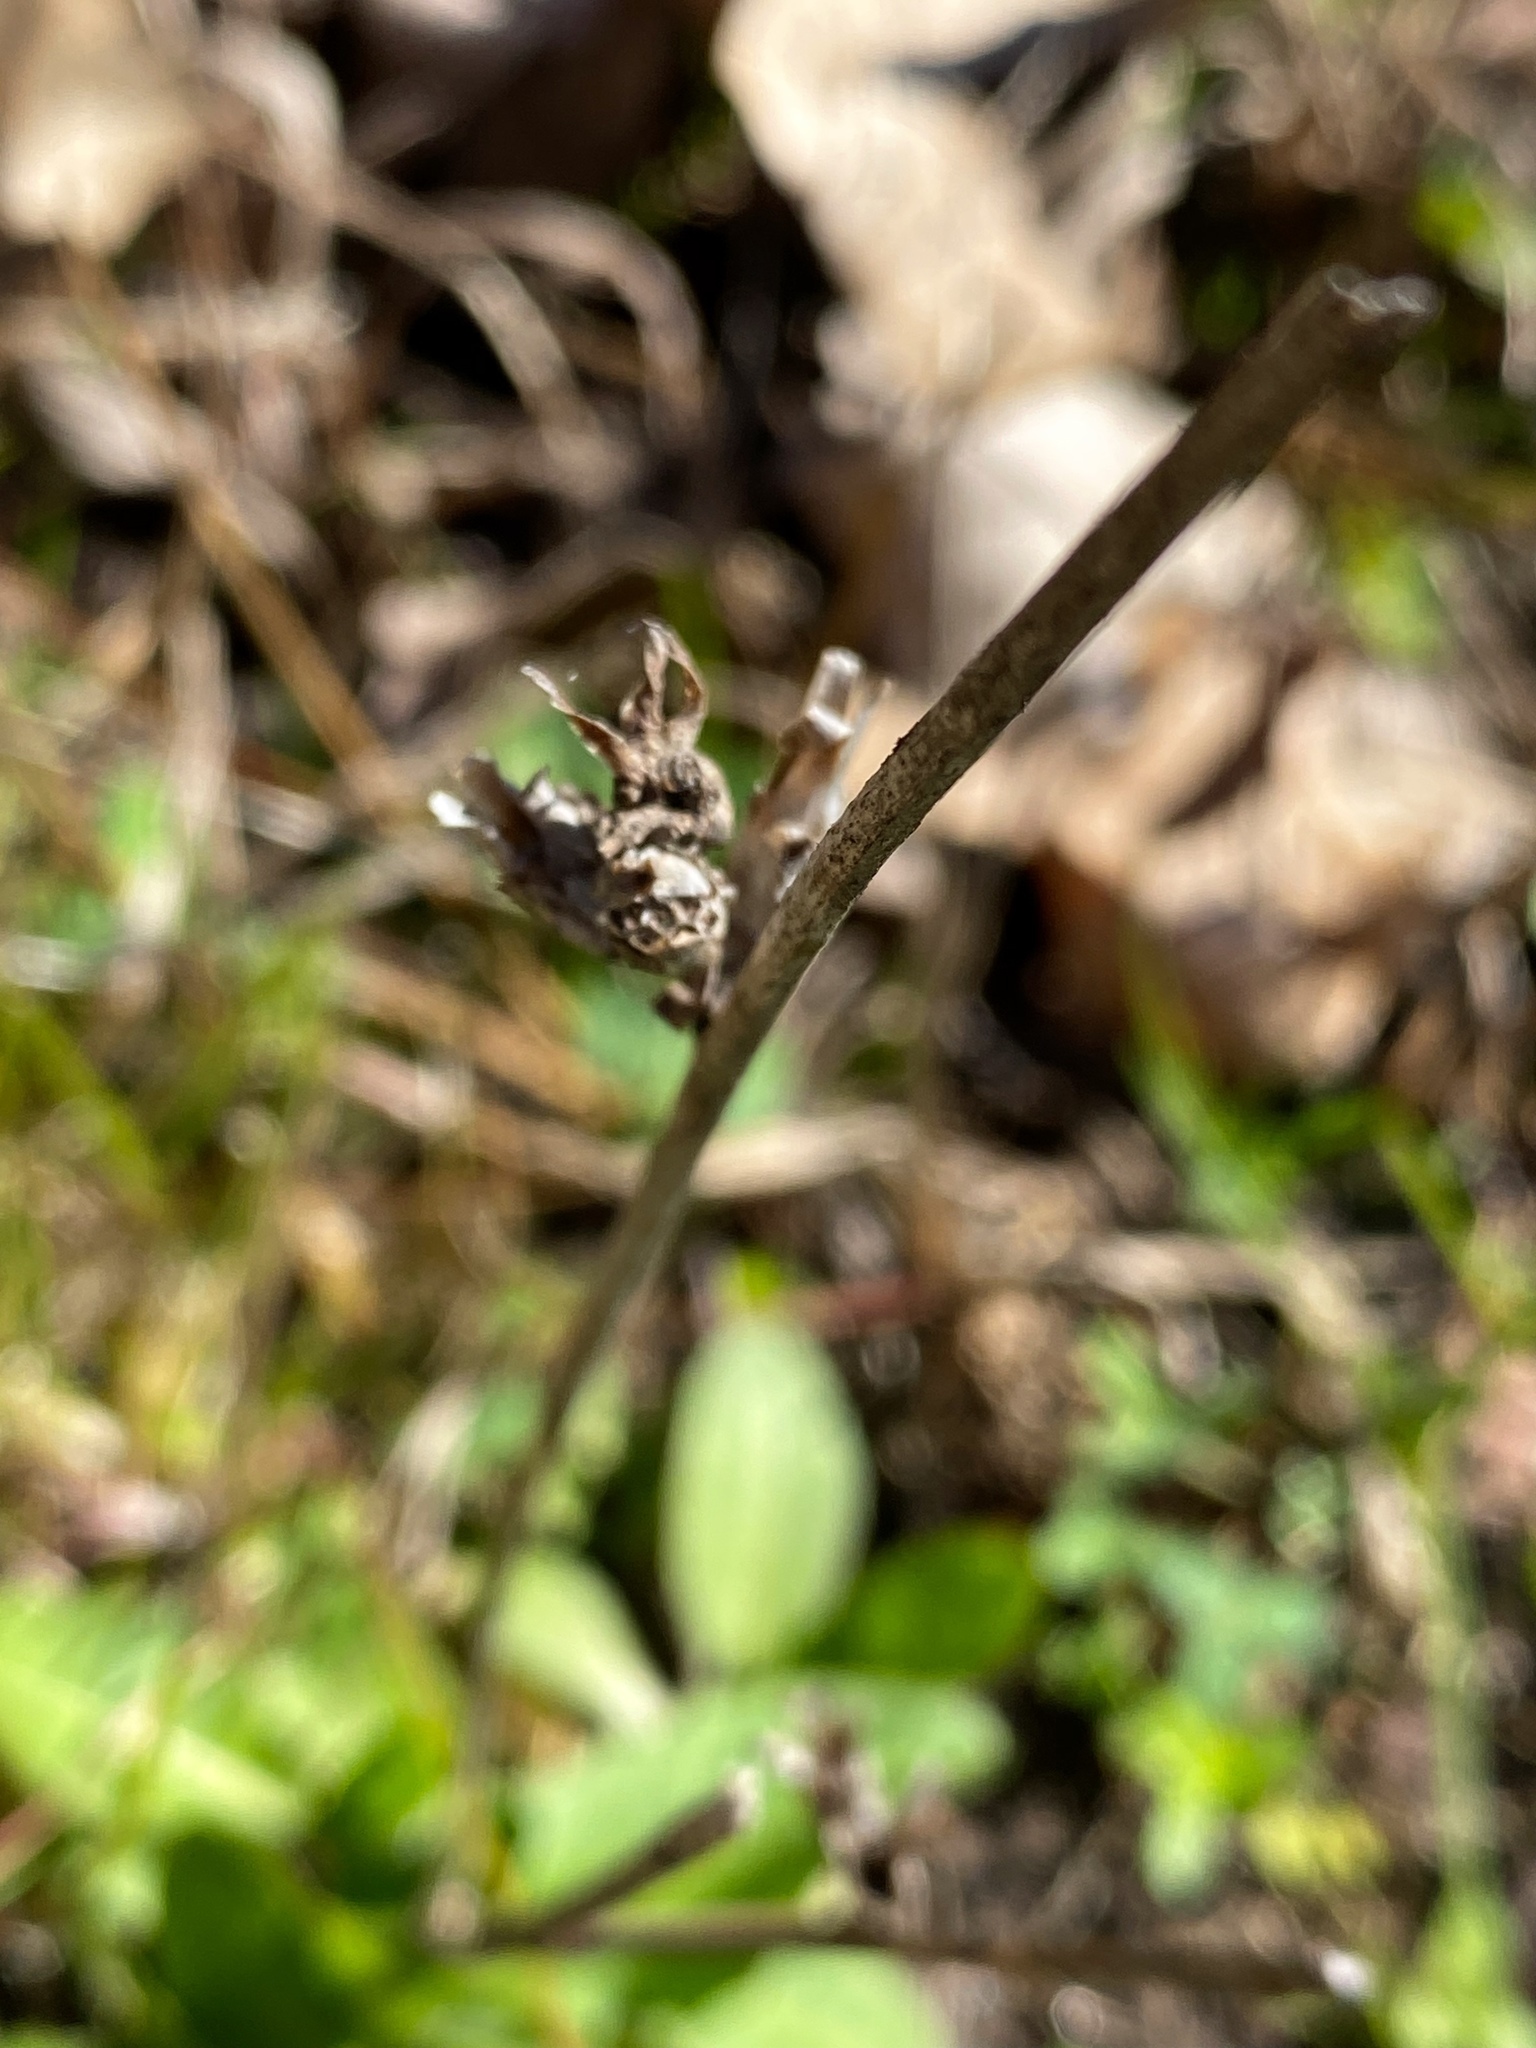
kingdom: Plantae
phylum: Tracheophyta
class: Magnoliopsida
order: Asterales
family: Asteraceae
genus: Cichorium
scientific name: Cichorium intybus
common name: Chicory
